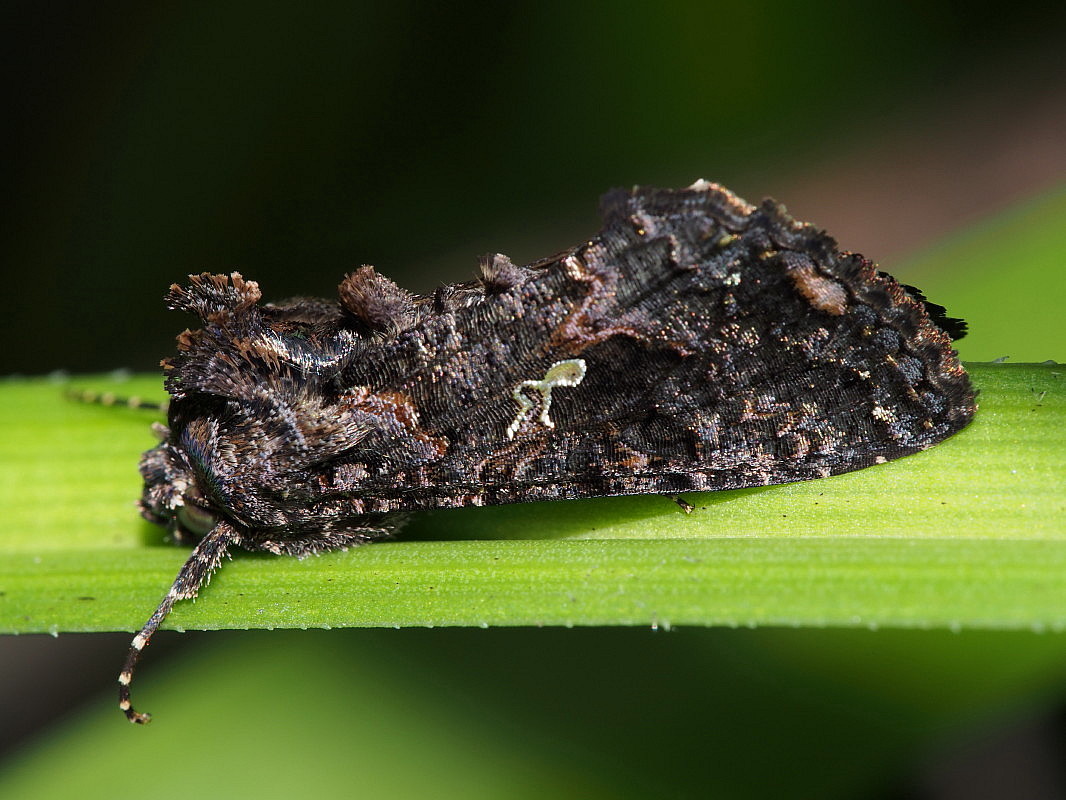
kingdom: Animalia
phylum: Arthropoda
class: Insecta
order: Lepidoptera
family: Noctuidae
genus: Ctenoplusia
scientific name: Ctenoplusia limbirena
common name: Scar bank gem
